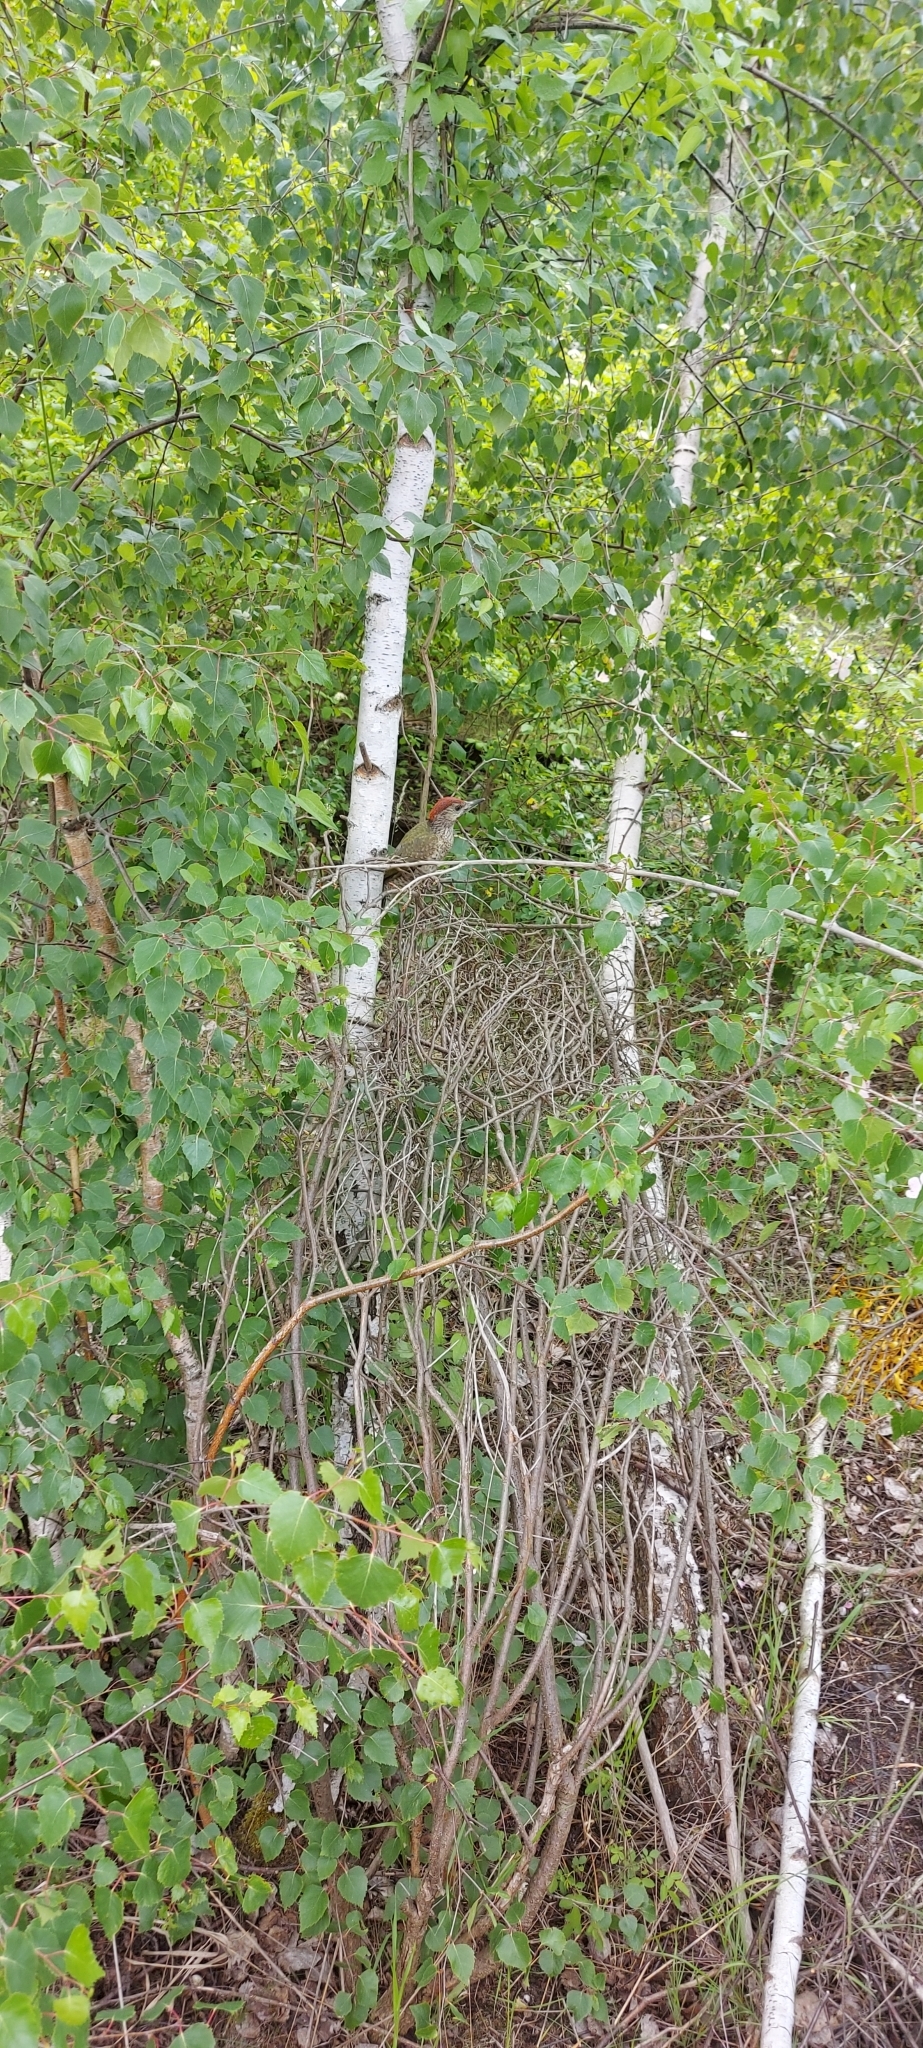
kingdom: Animalia
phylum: Chordata
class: Aves
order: Piciformes
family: Picidae
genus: Picus
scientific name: Picus viridis
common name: European green woodpecker
